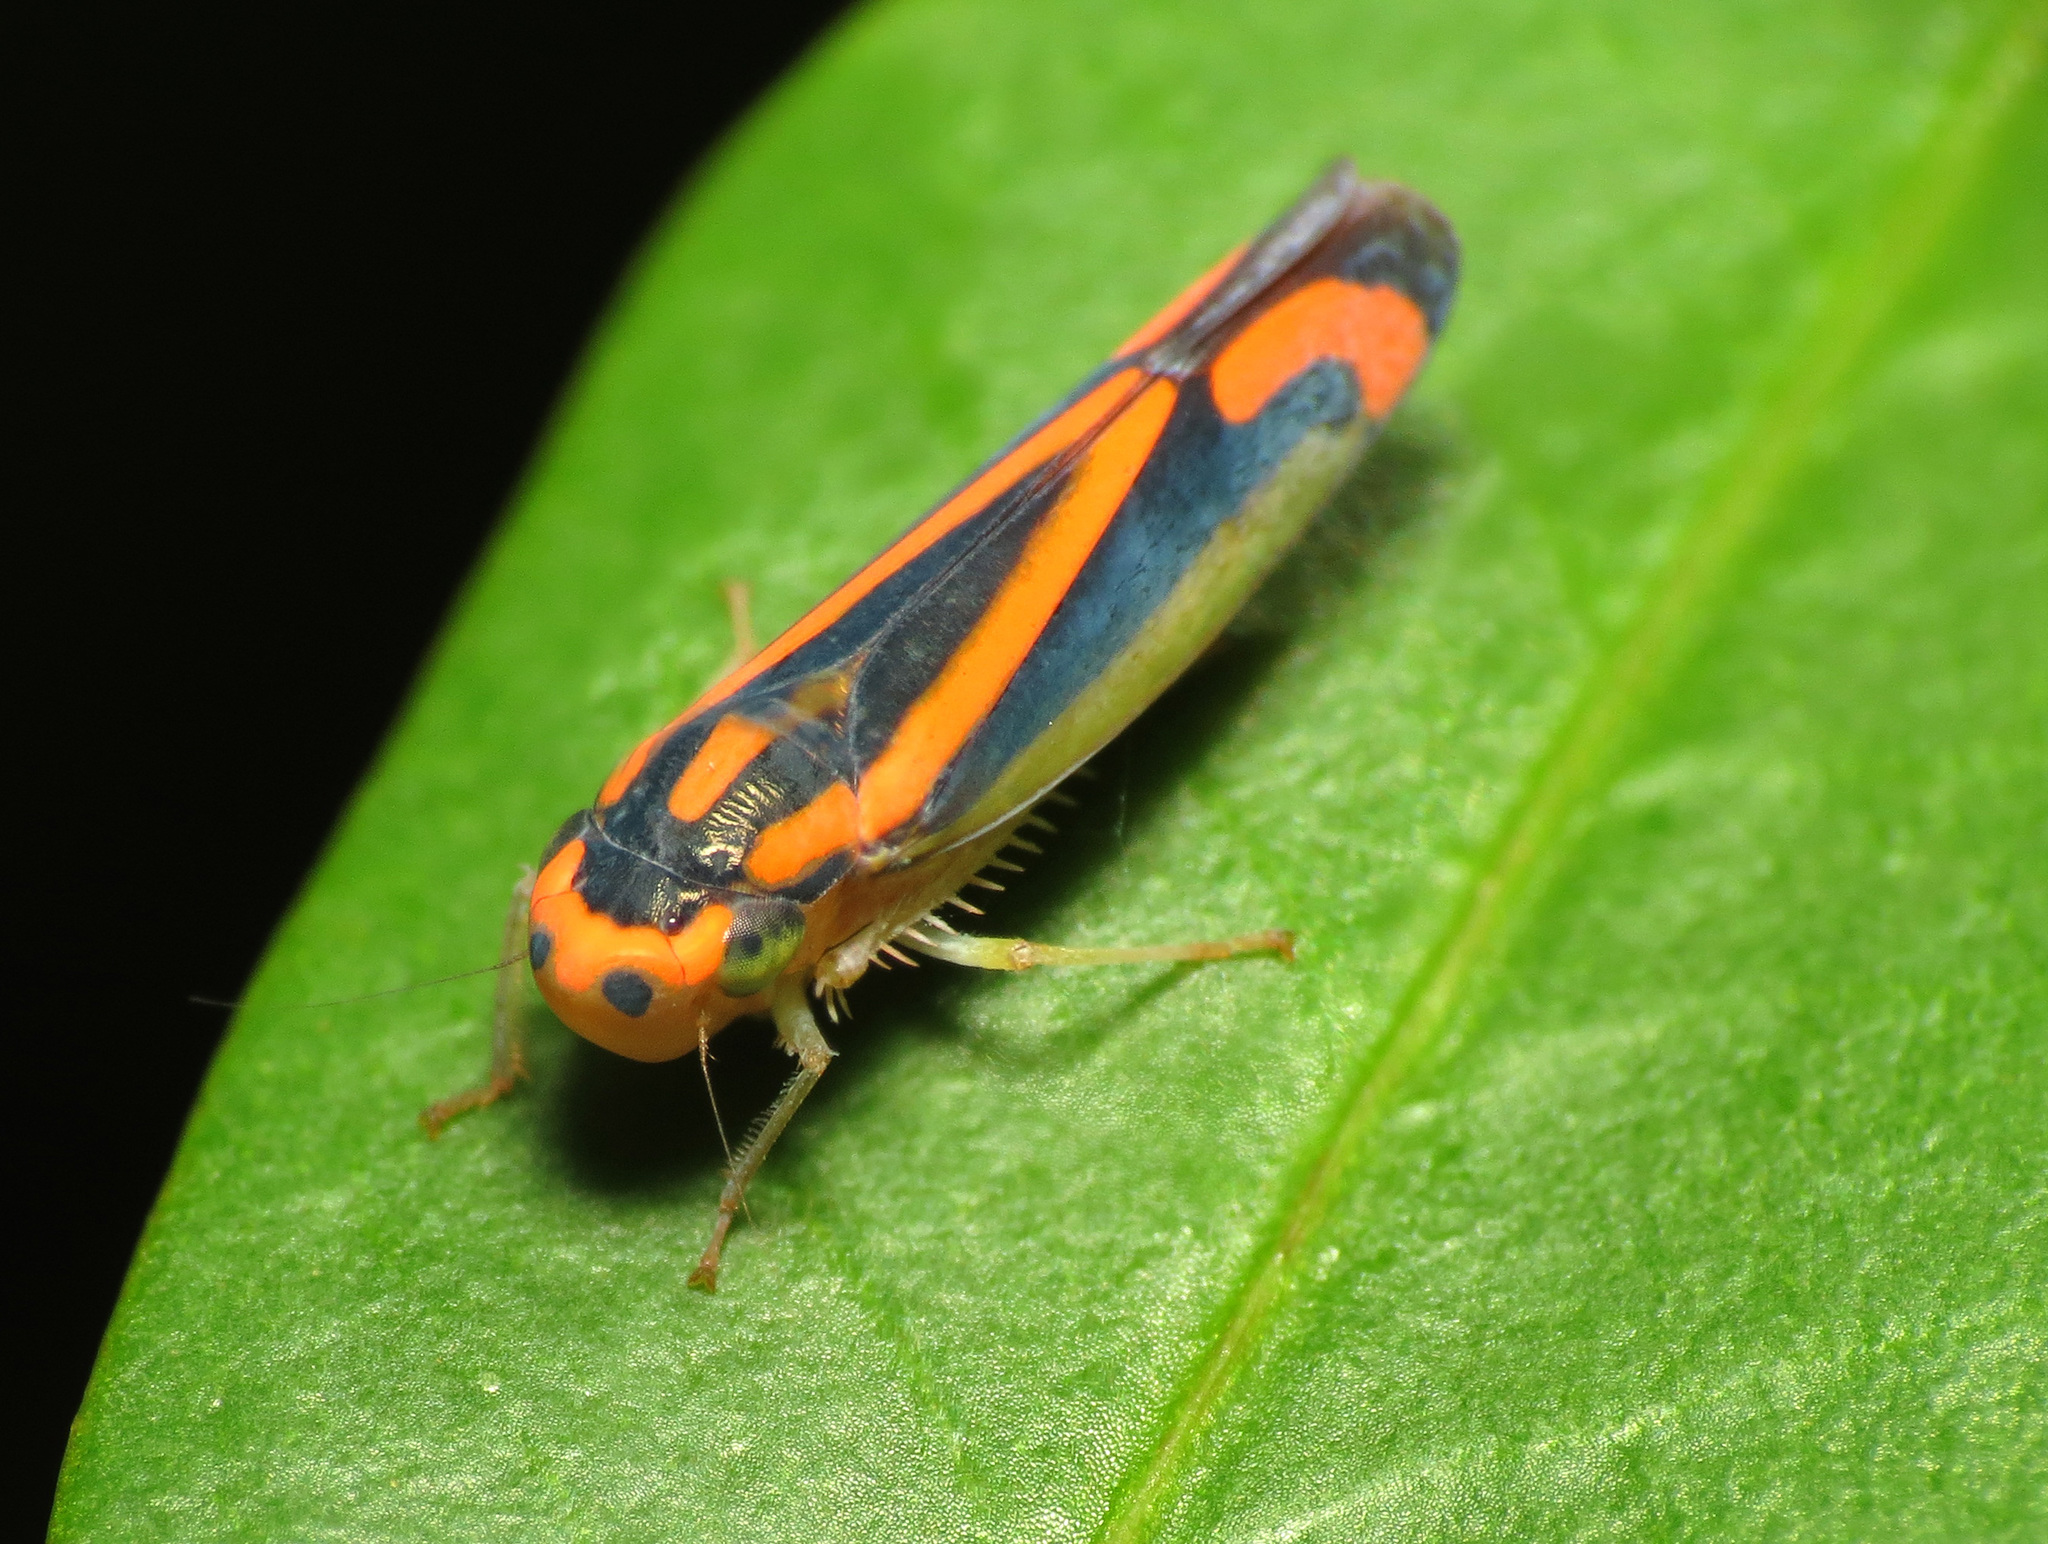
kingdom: Animalia
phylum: Arthropoda
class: Insecta
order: Hemiptera
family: Cicadellidae
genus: Soosiulus
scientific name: Soosiulus salutaris
